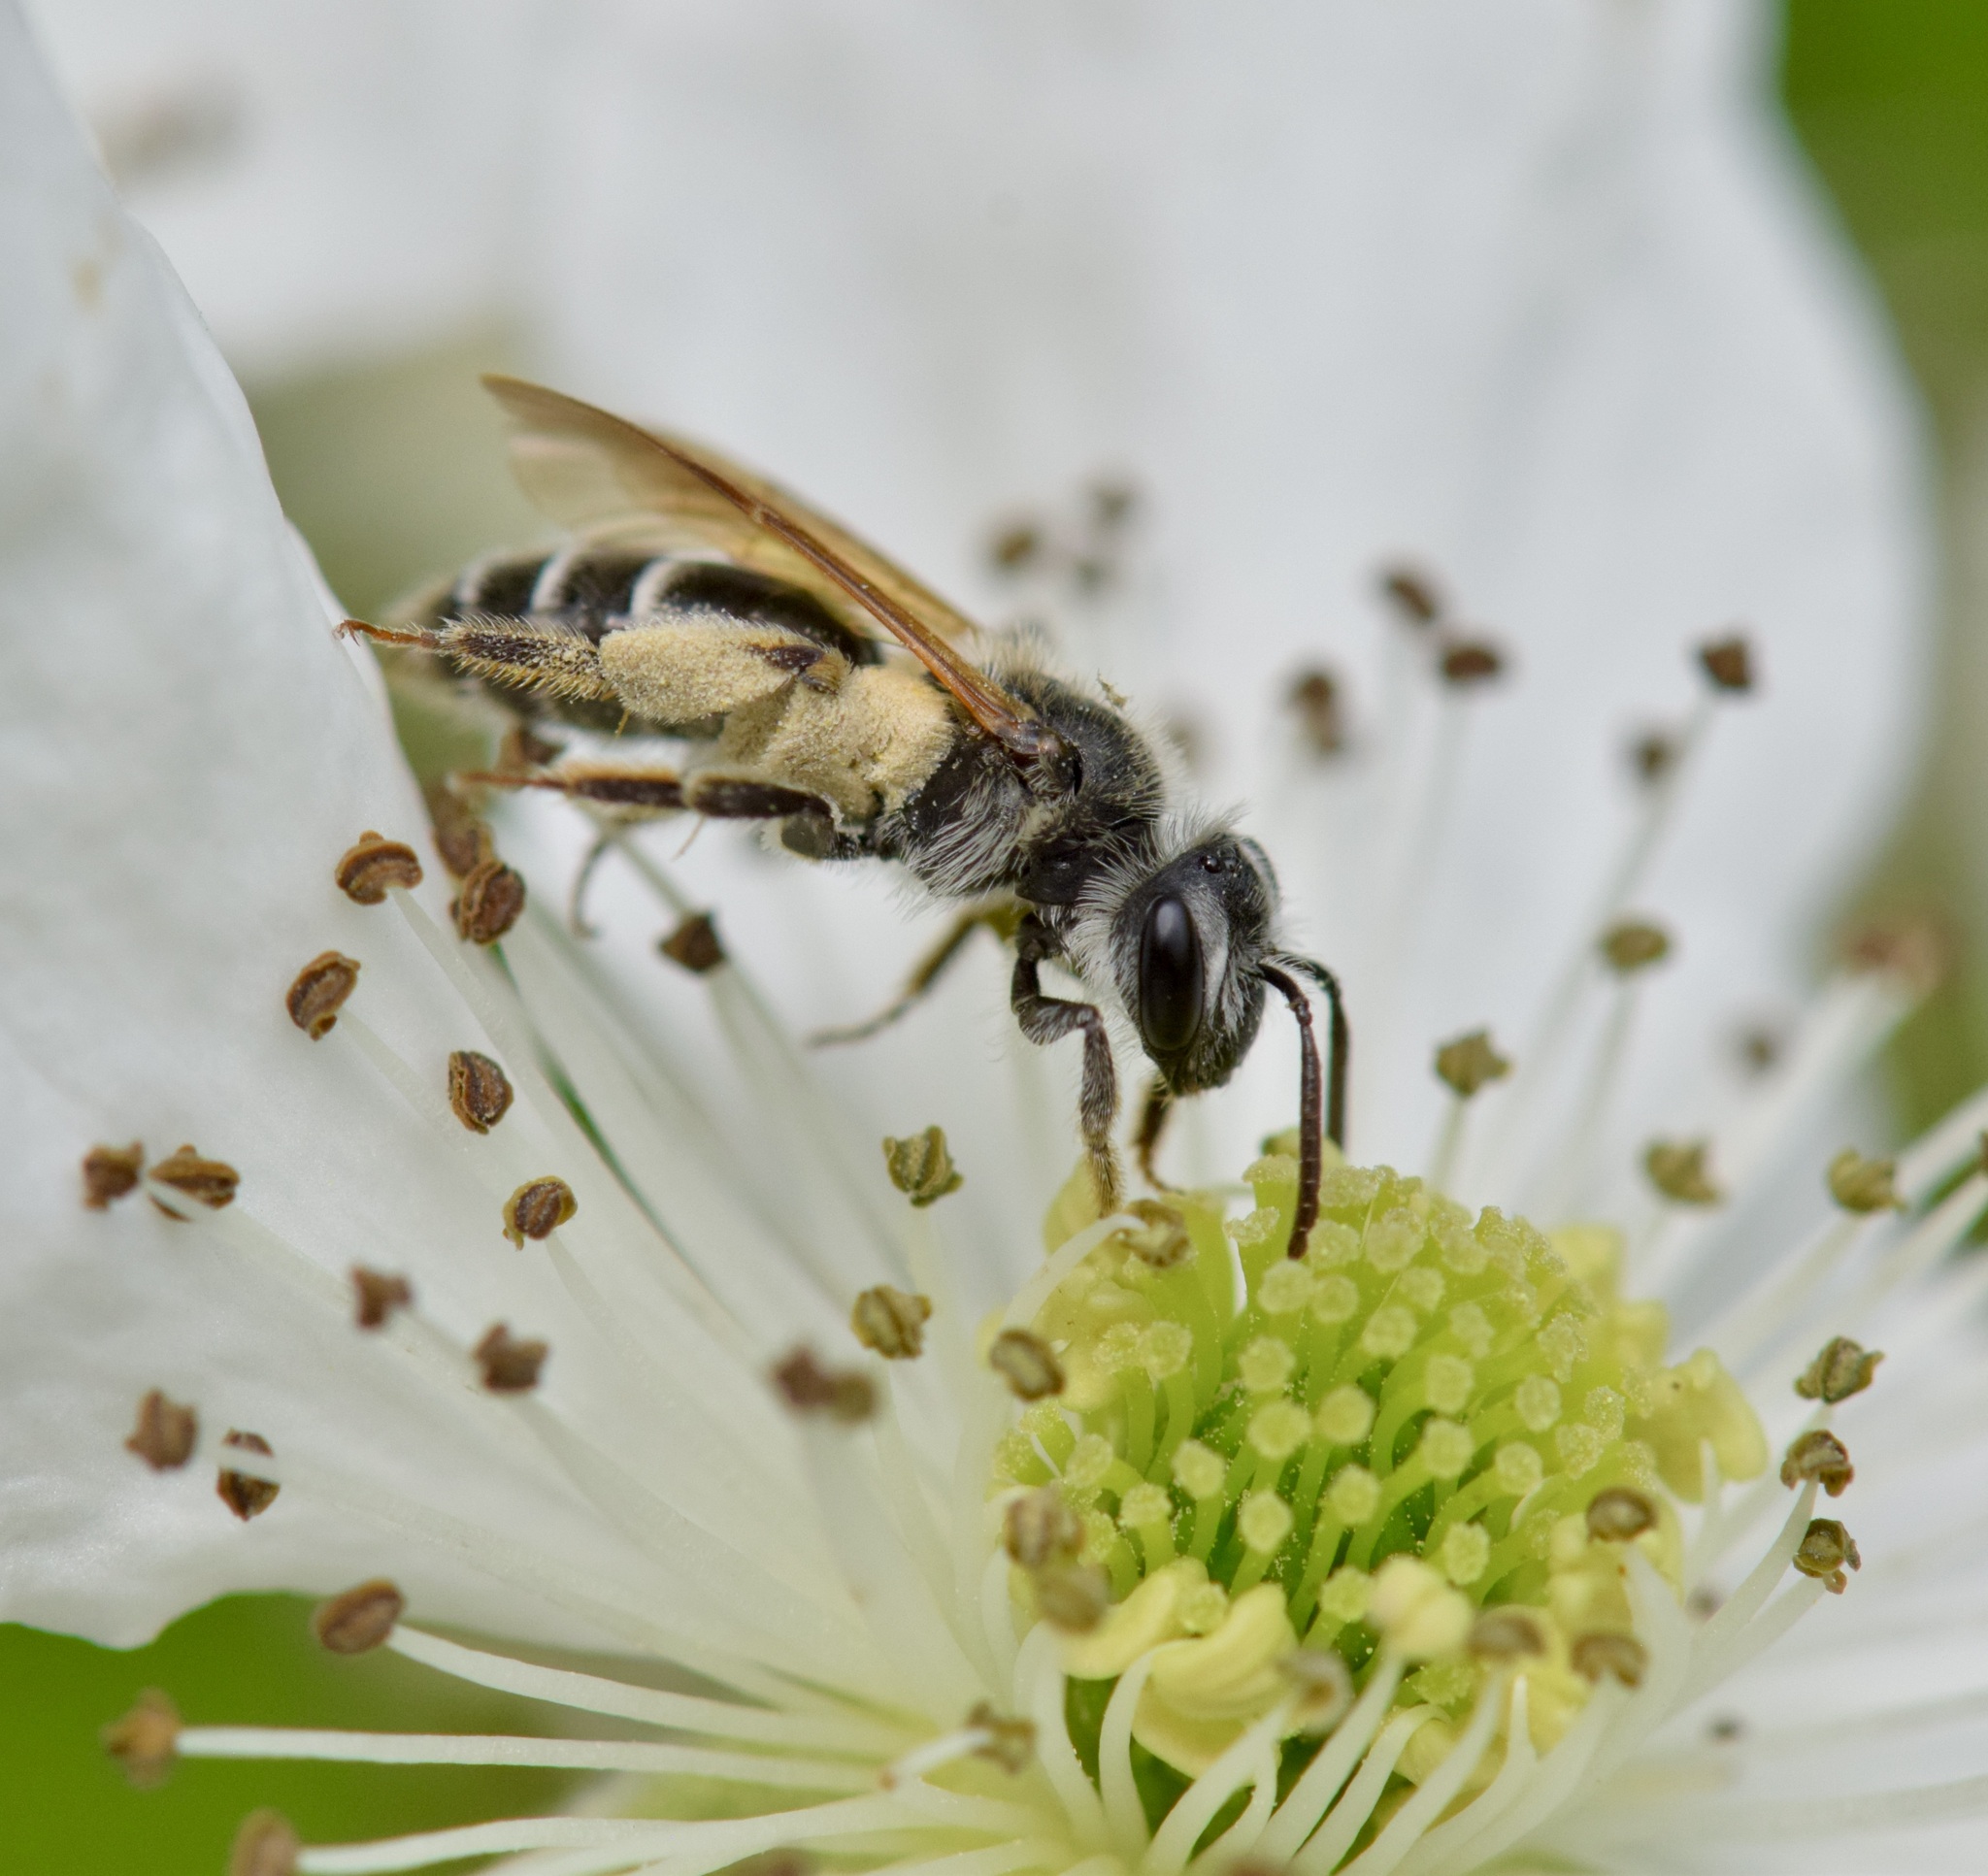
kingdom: Animalia
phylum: Arthropoda
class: Insecta
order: Hymenoptera
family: Andrenidae
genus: Andrena
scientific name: Andrena nasonii
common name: Nason's mining bee
